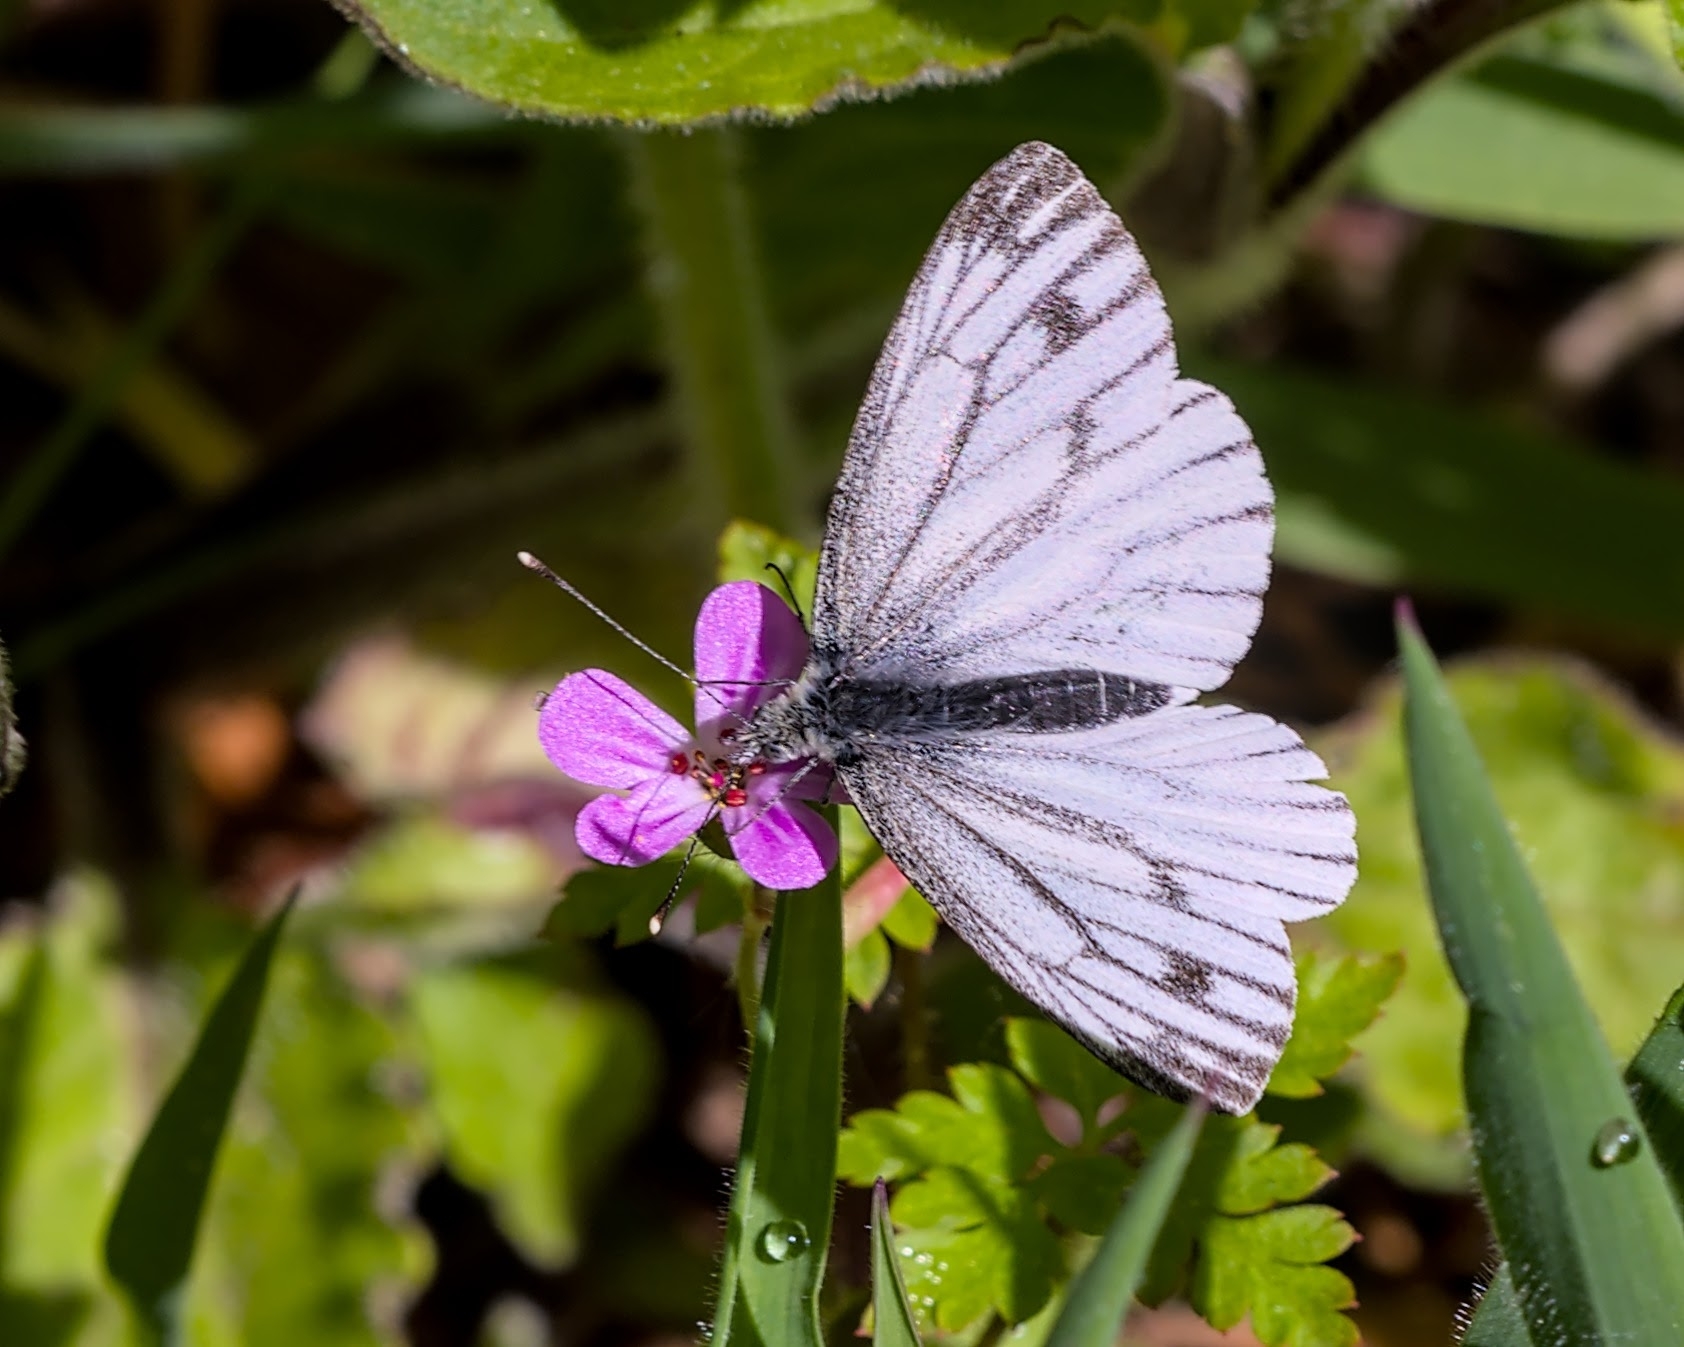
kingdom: Animalia
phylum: Arthropoda
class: Insecta
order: Lepidoptera
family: Pieridae
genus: Pieris
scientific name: Pieris napi
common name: Green-veined white
